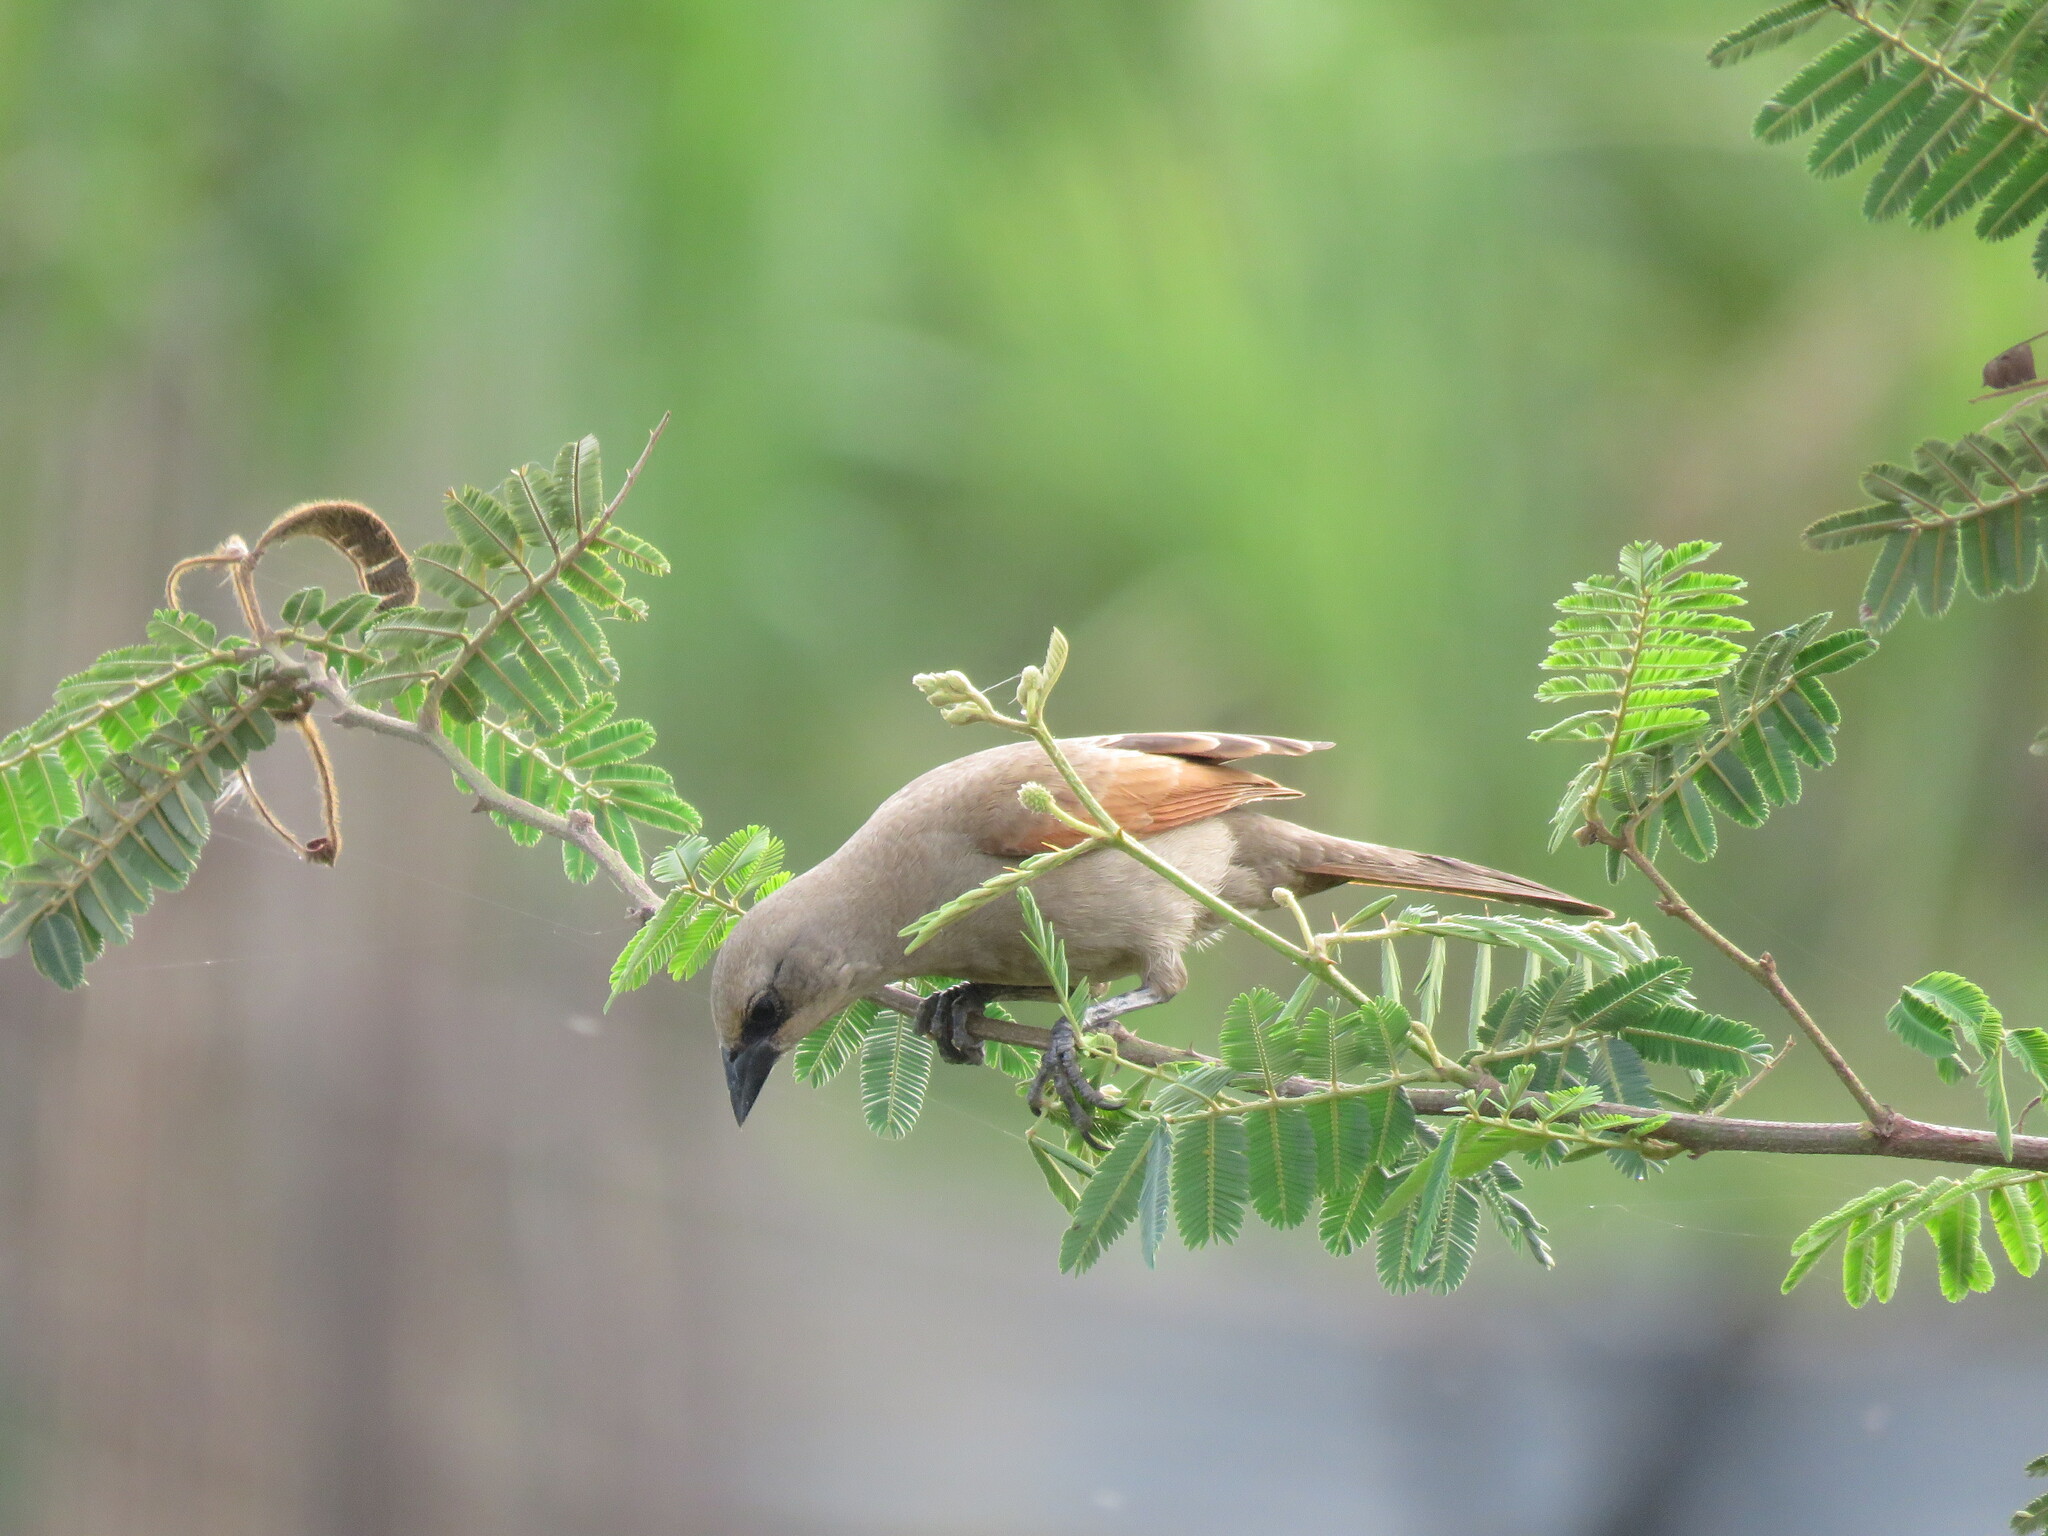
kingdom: Animalia
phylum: Chordata
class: Aves
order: Passeriformes
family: Icteridae
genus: Agelaioides
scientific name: Agelaioides badius
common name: Baywing
